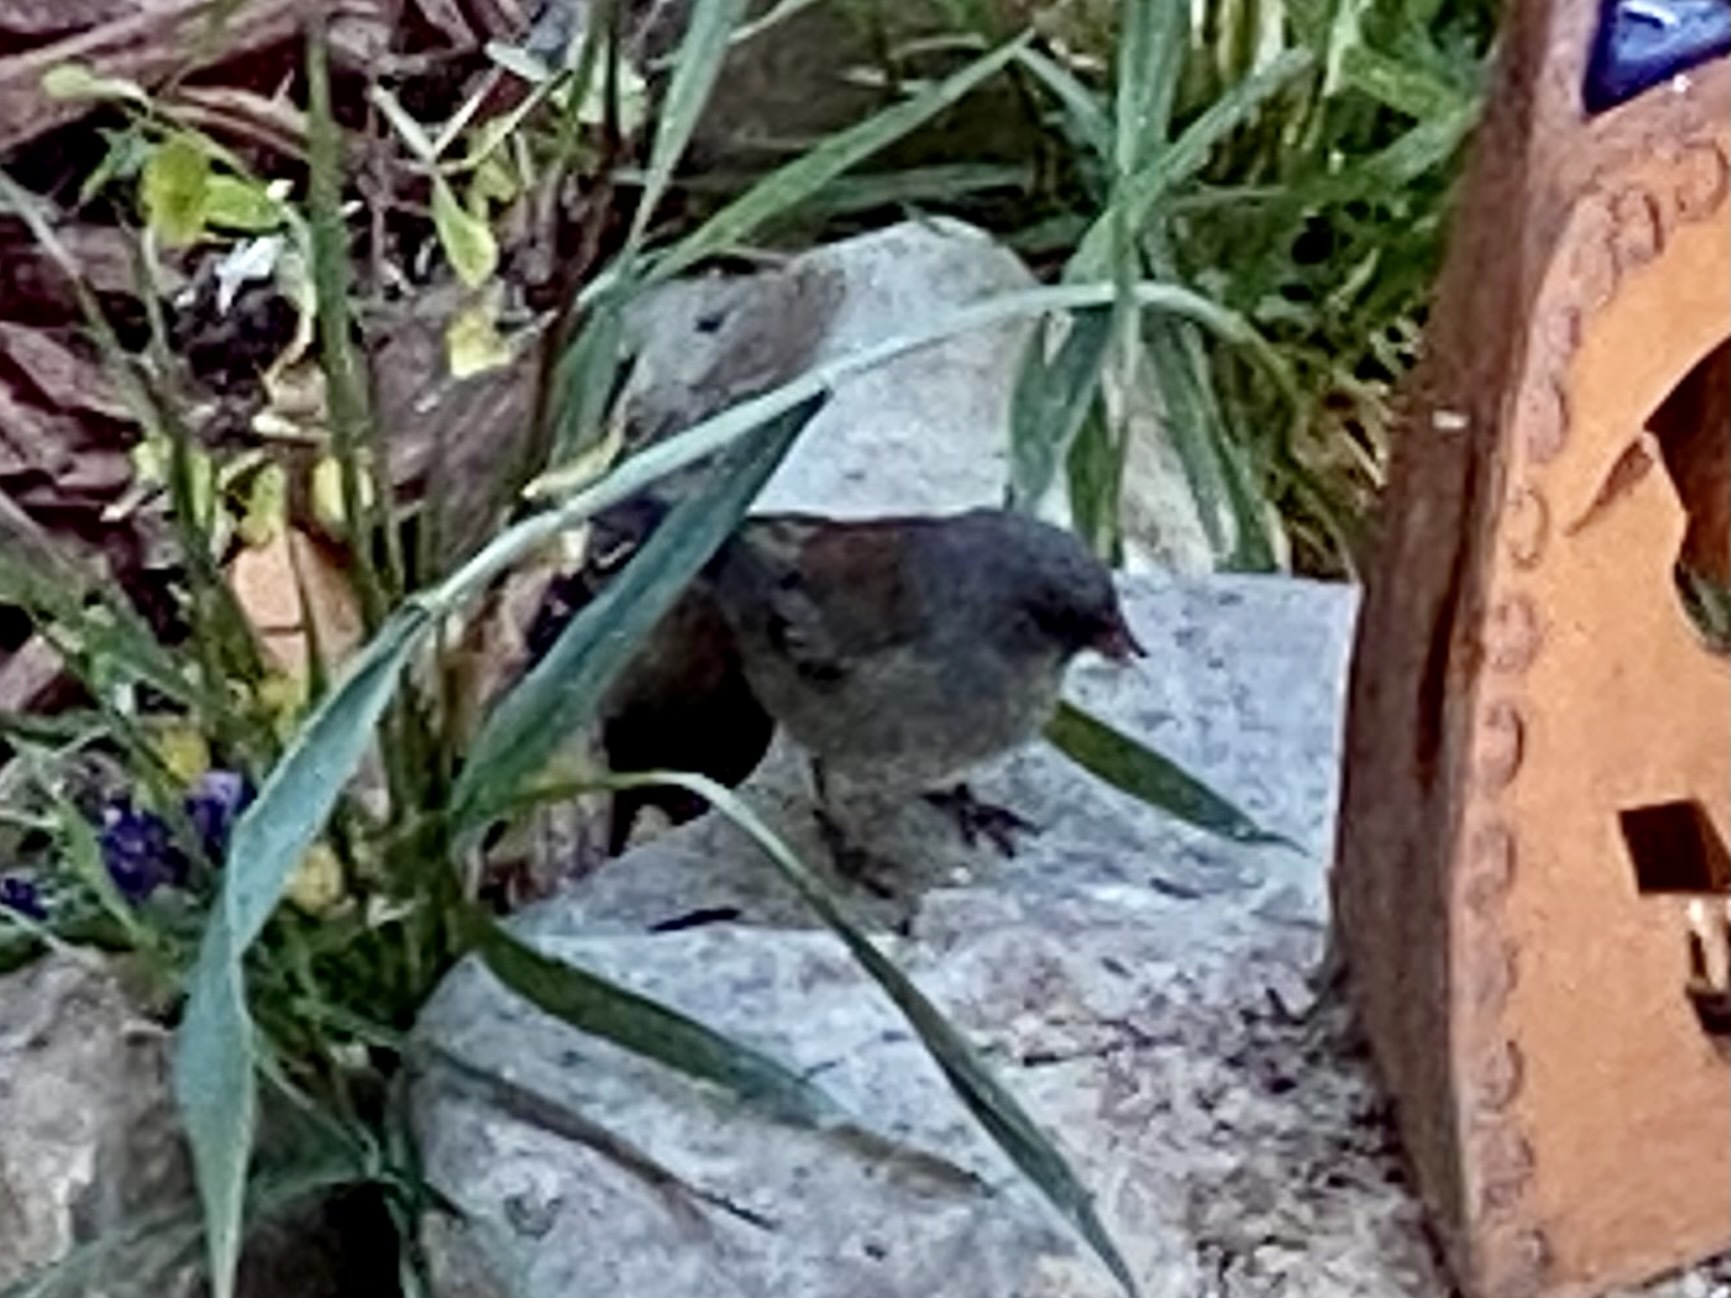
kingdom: Animalia
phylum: Chordata
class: Aves
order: Passeriformes
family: Passerellidae
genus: Junco
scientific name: Junco hyemalis
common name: Dark-eyed junco
